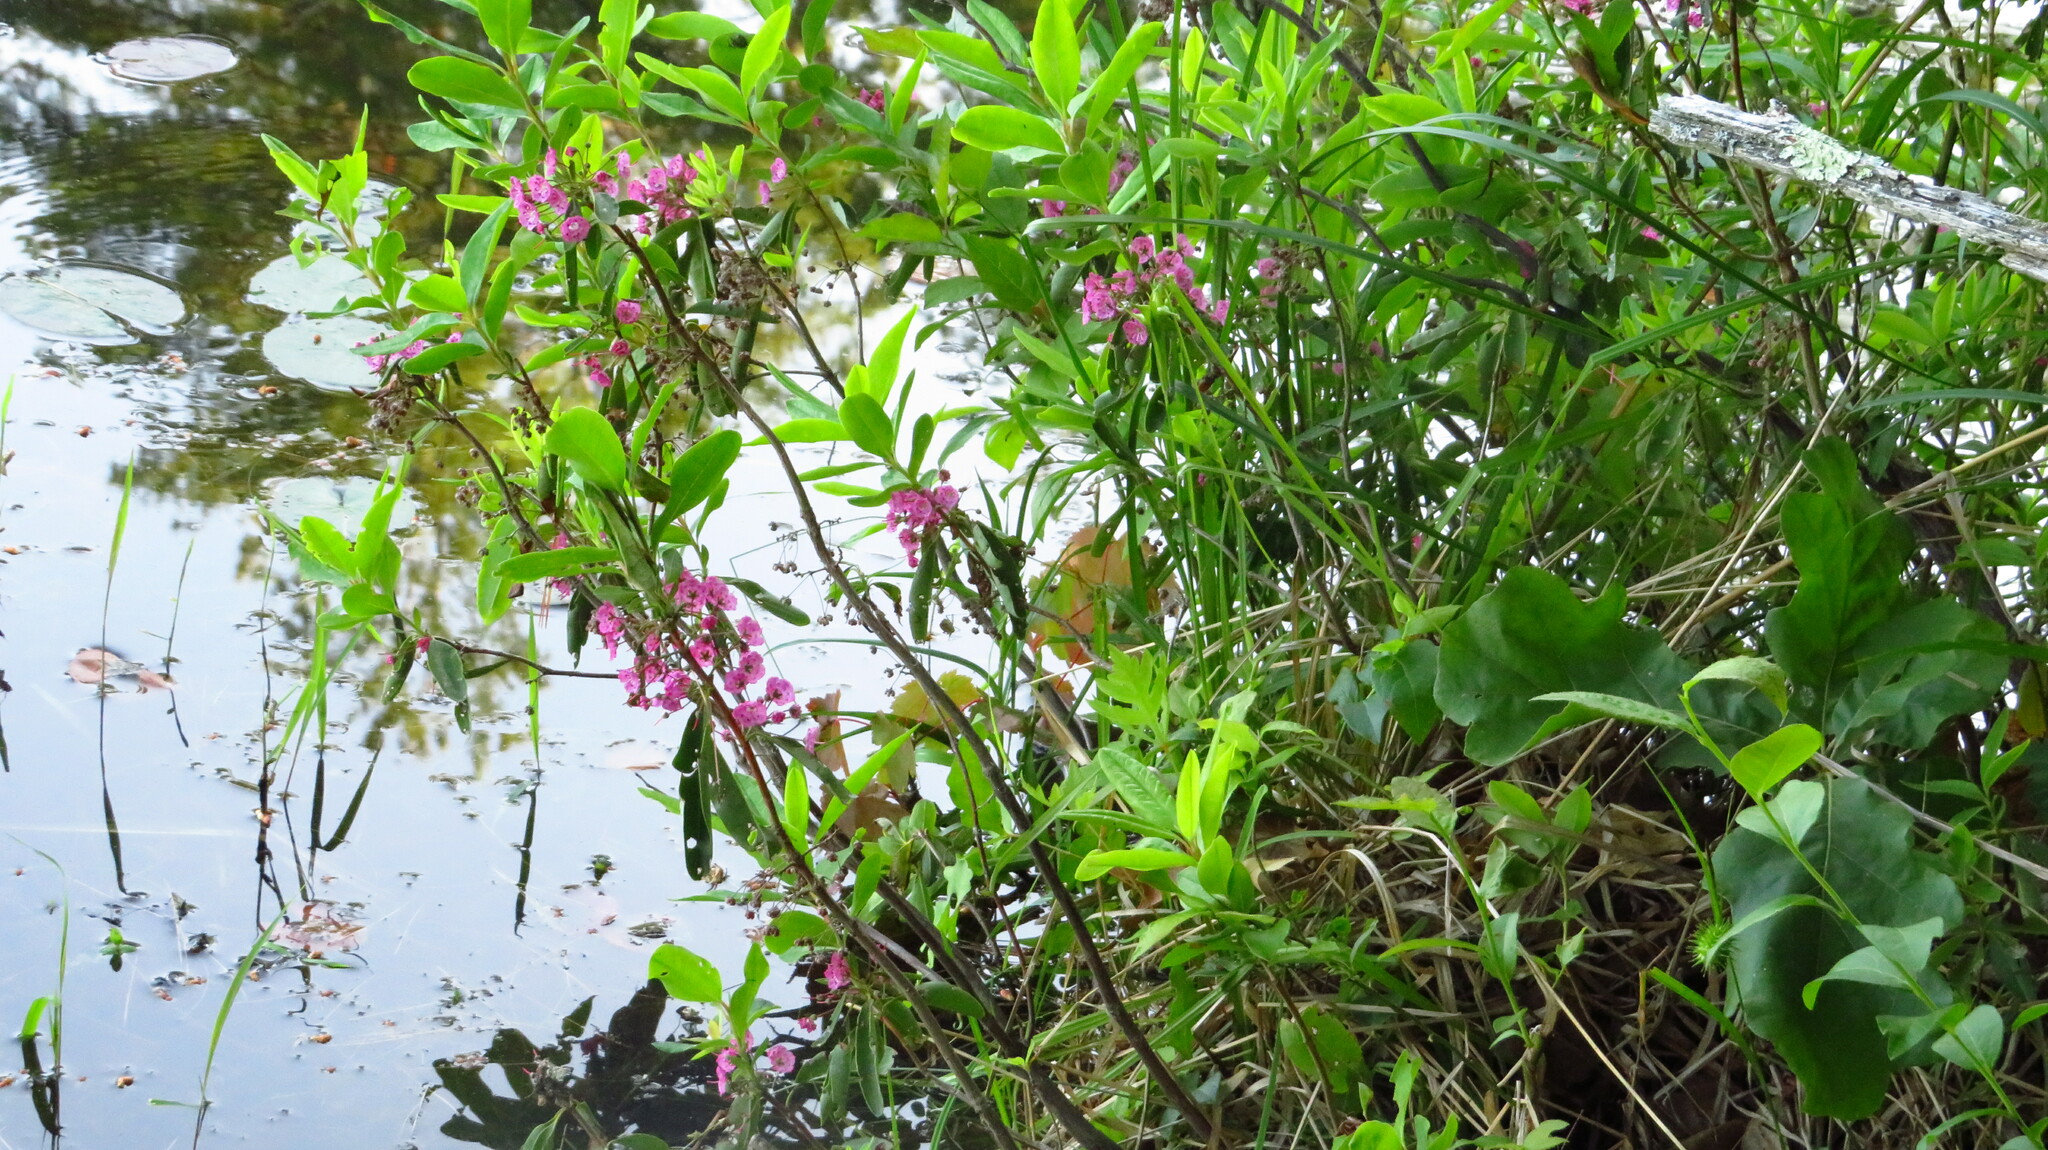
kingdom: Plantae
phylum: Tracheophyta
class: Magnoliopsida
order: Ericales
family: Ericaceae
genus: Kalmia
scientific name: Kalmia angustifolia
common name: Sheep-laurel
